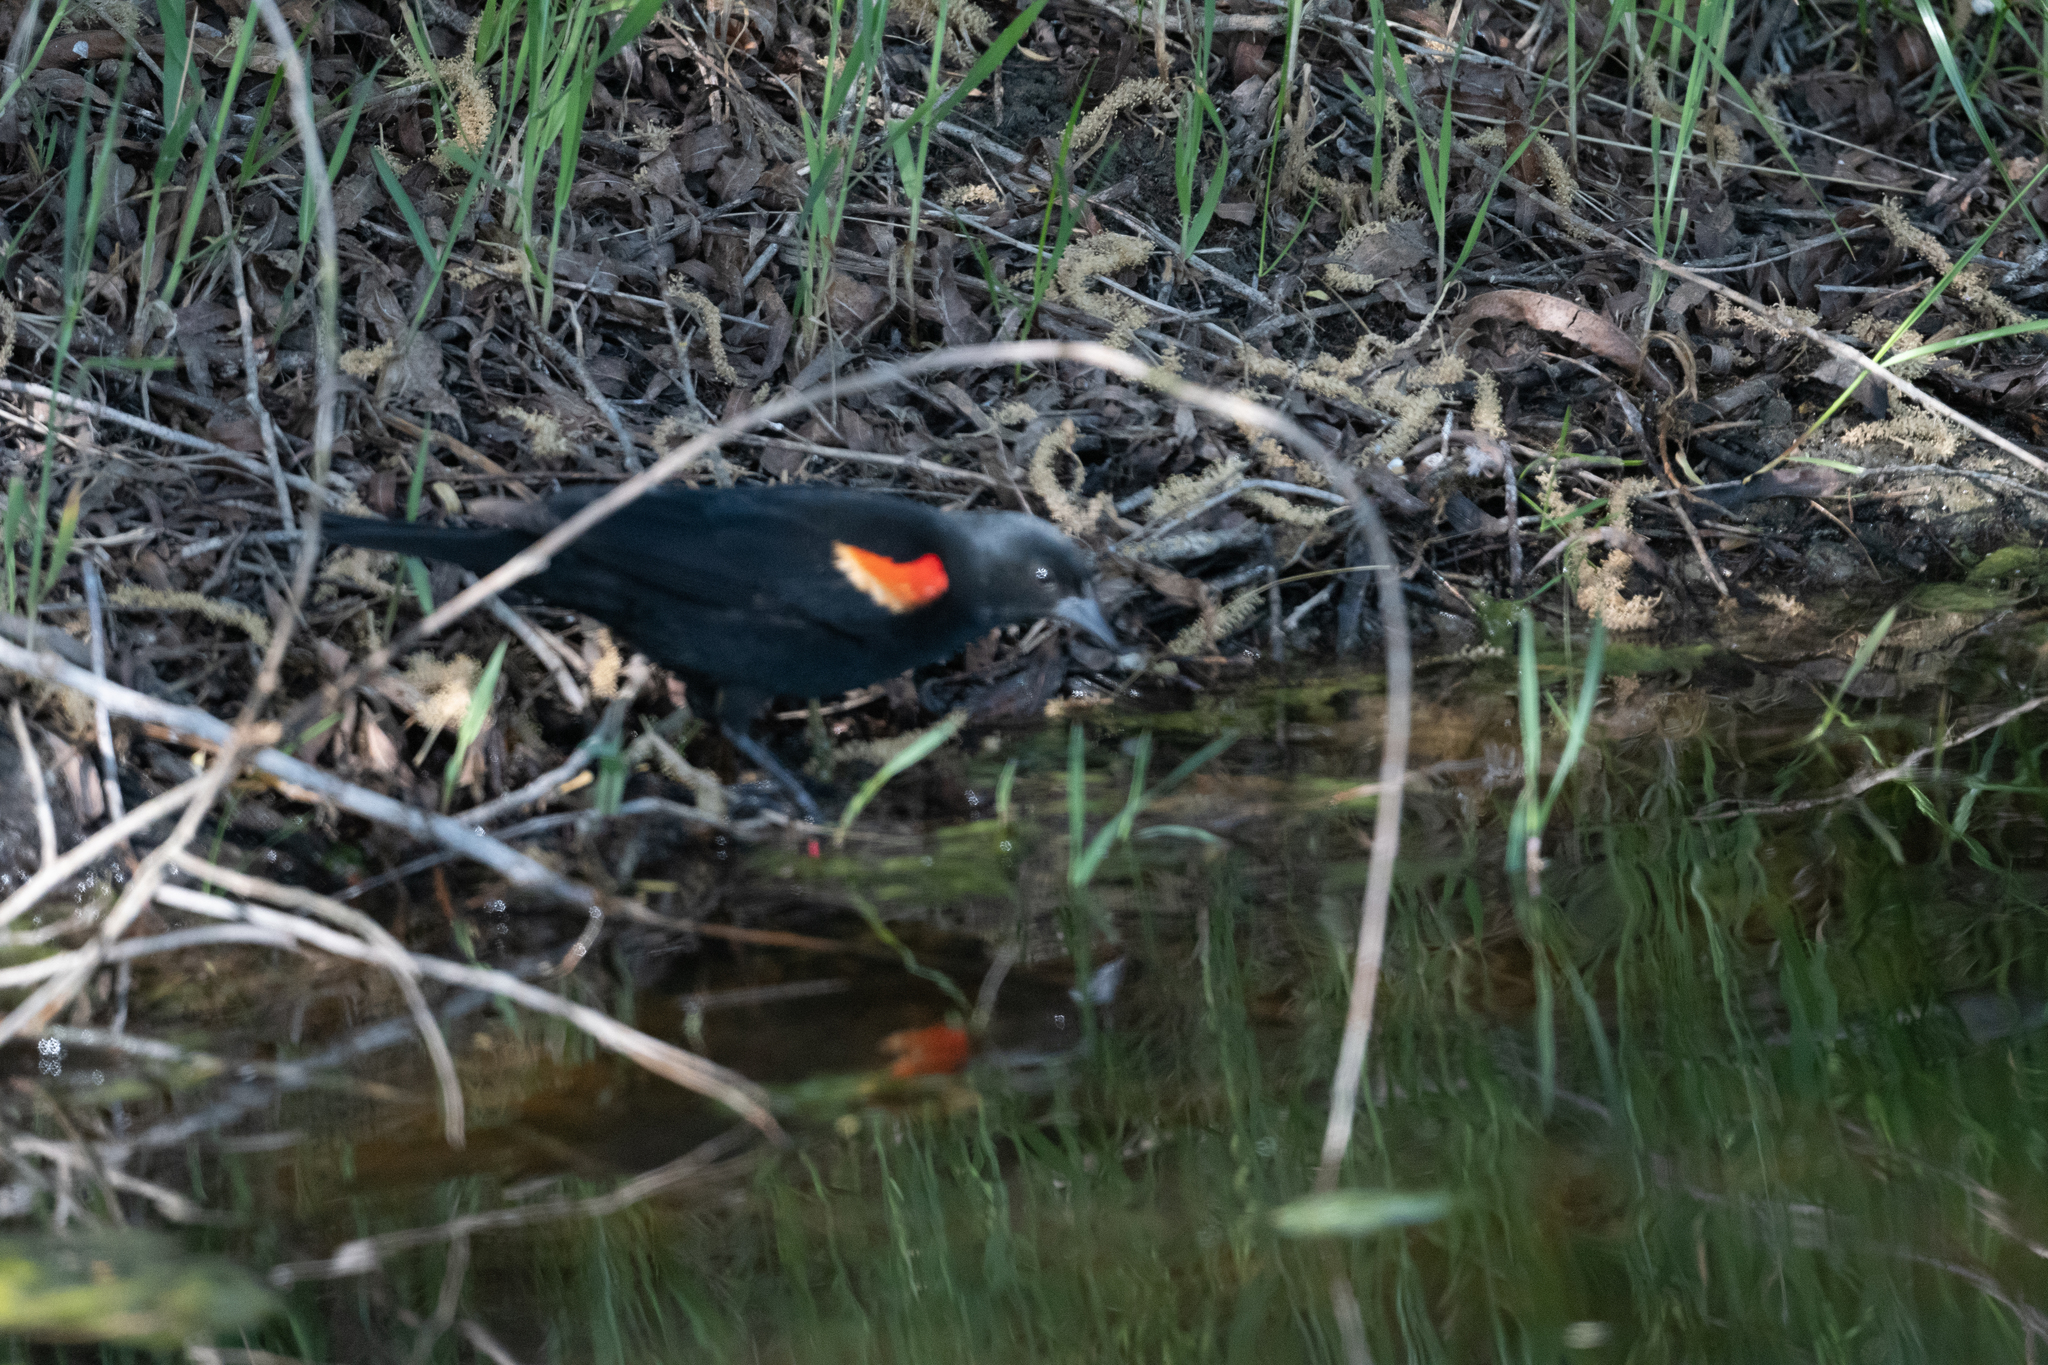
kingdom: Animalia
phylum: Chordata
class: Aves
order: Passeriformes
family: Icteridae
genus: Agelaius
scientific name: Agelaius phoeniceus
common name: Red-winged blackbird
